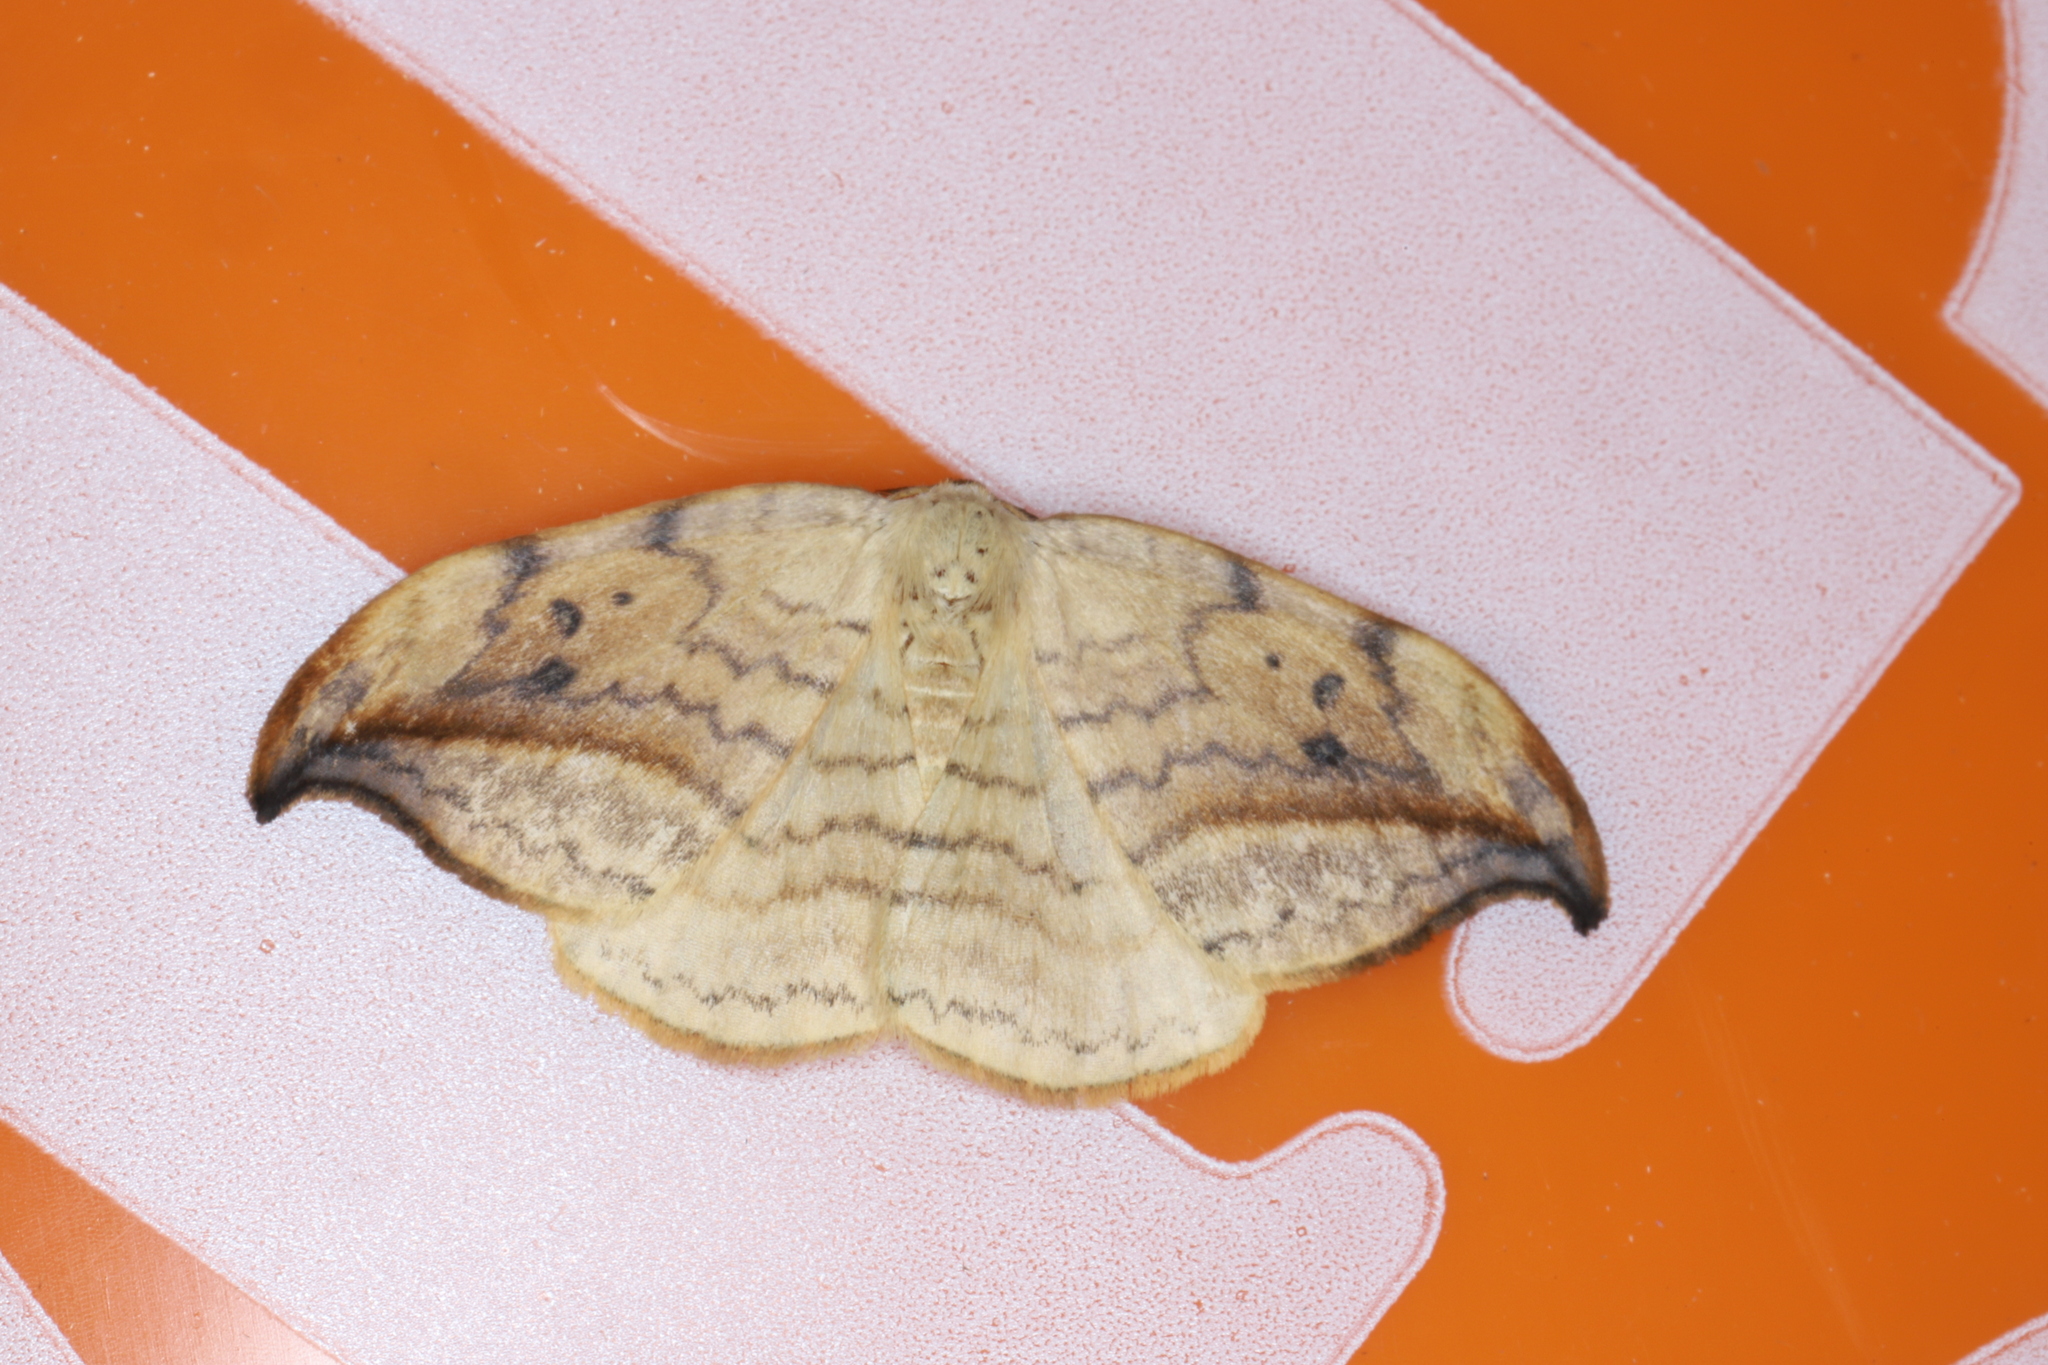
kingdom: Animalia
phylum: Arthropoda
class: Insecta
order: Lepidoptera
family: Drepanidae
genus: Drepana
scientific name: Drepana arcuata
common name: Arched hooktip moth
